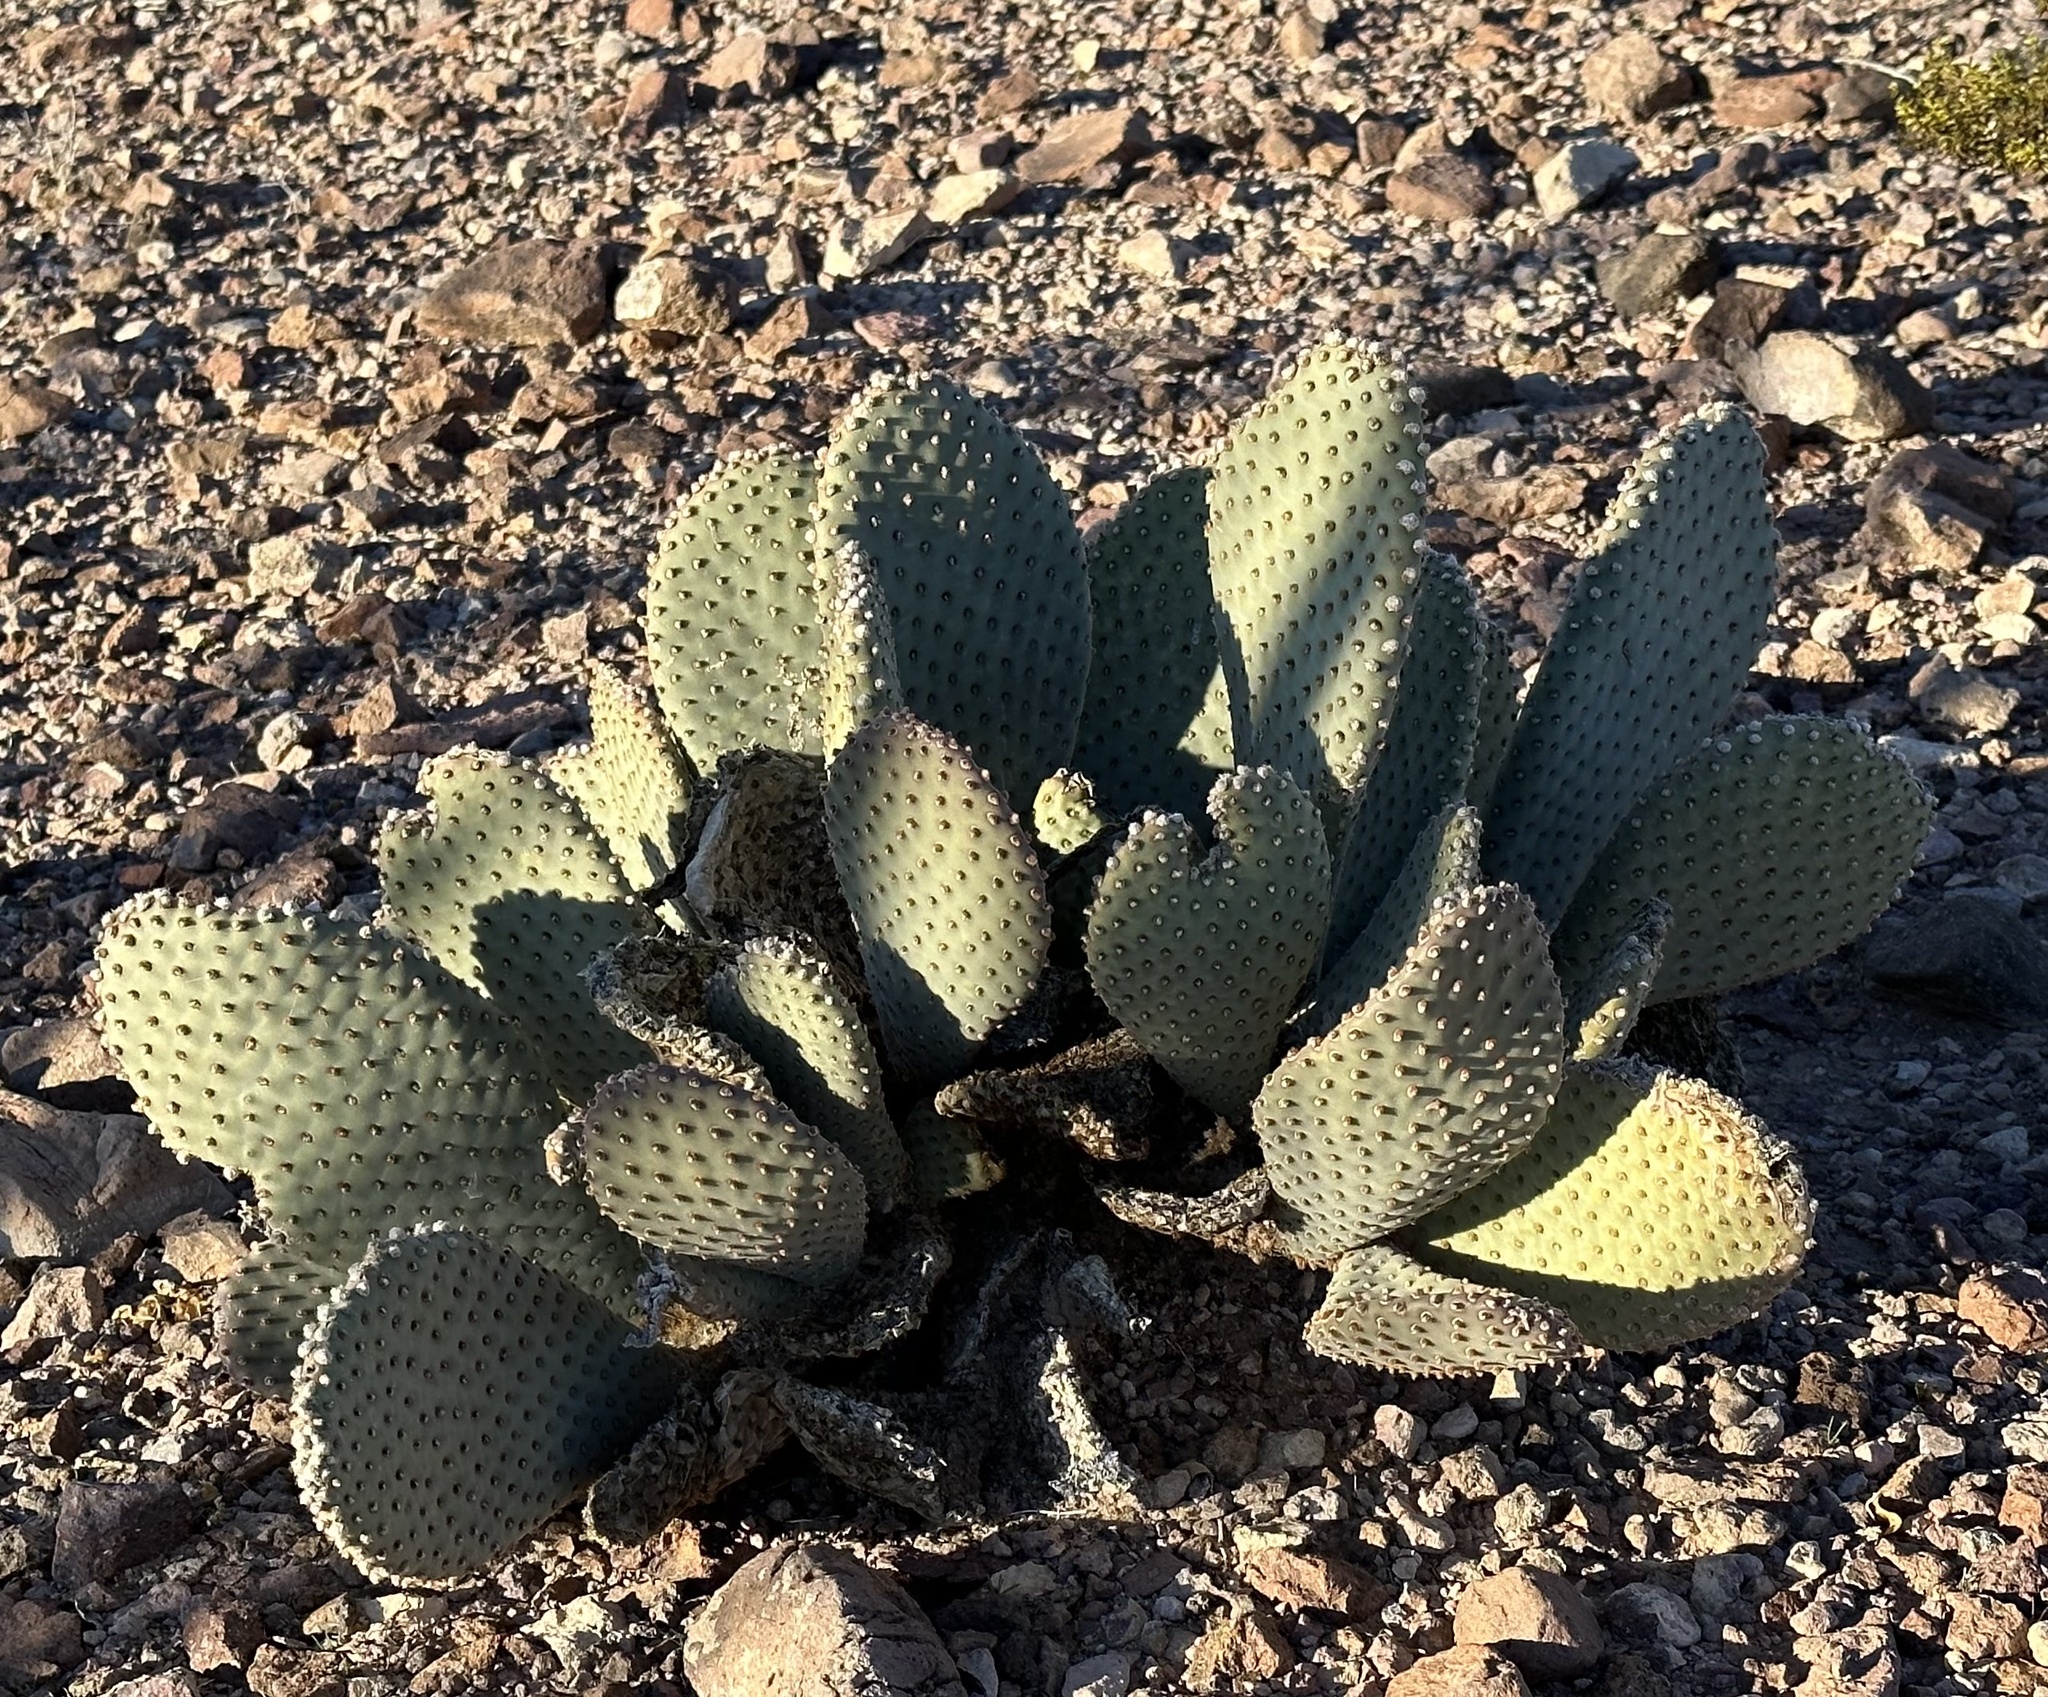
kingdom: Plantae
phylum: Tracheophyta
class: Magnoliopsida
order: Caryophyllales
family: Cactaceae
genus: Opuntia
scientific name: Opuntia basilaris
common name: Beavertail prickly-pear
